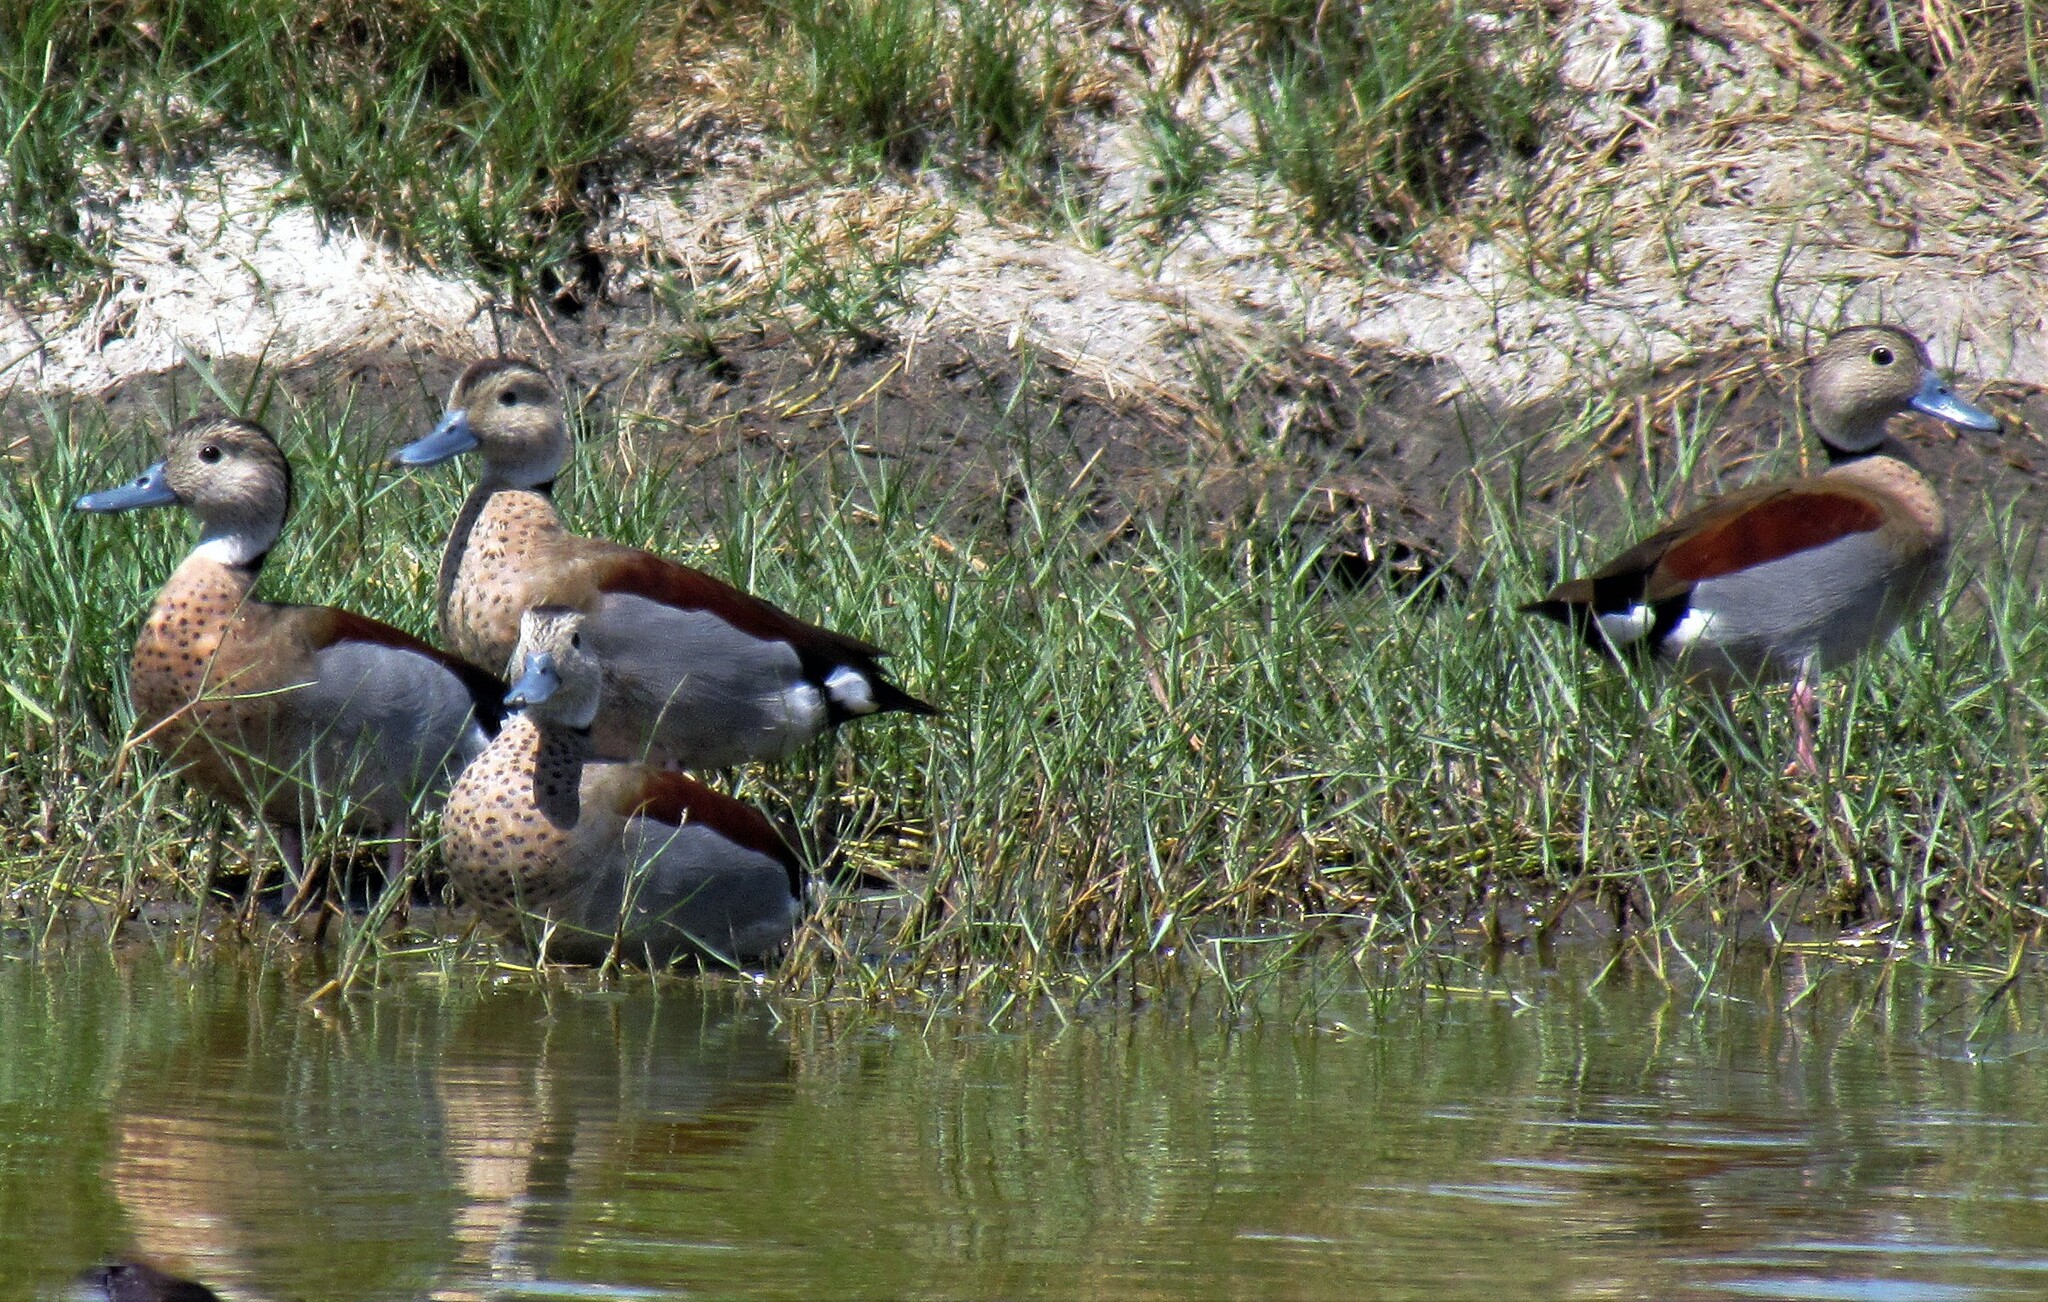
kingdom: Animalia
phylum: Chordata
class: Aves
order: Anseriformes
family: Anatidae
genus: Callonetta
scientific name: Callonetta leucophrys
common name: Ringed teal
